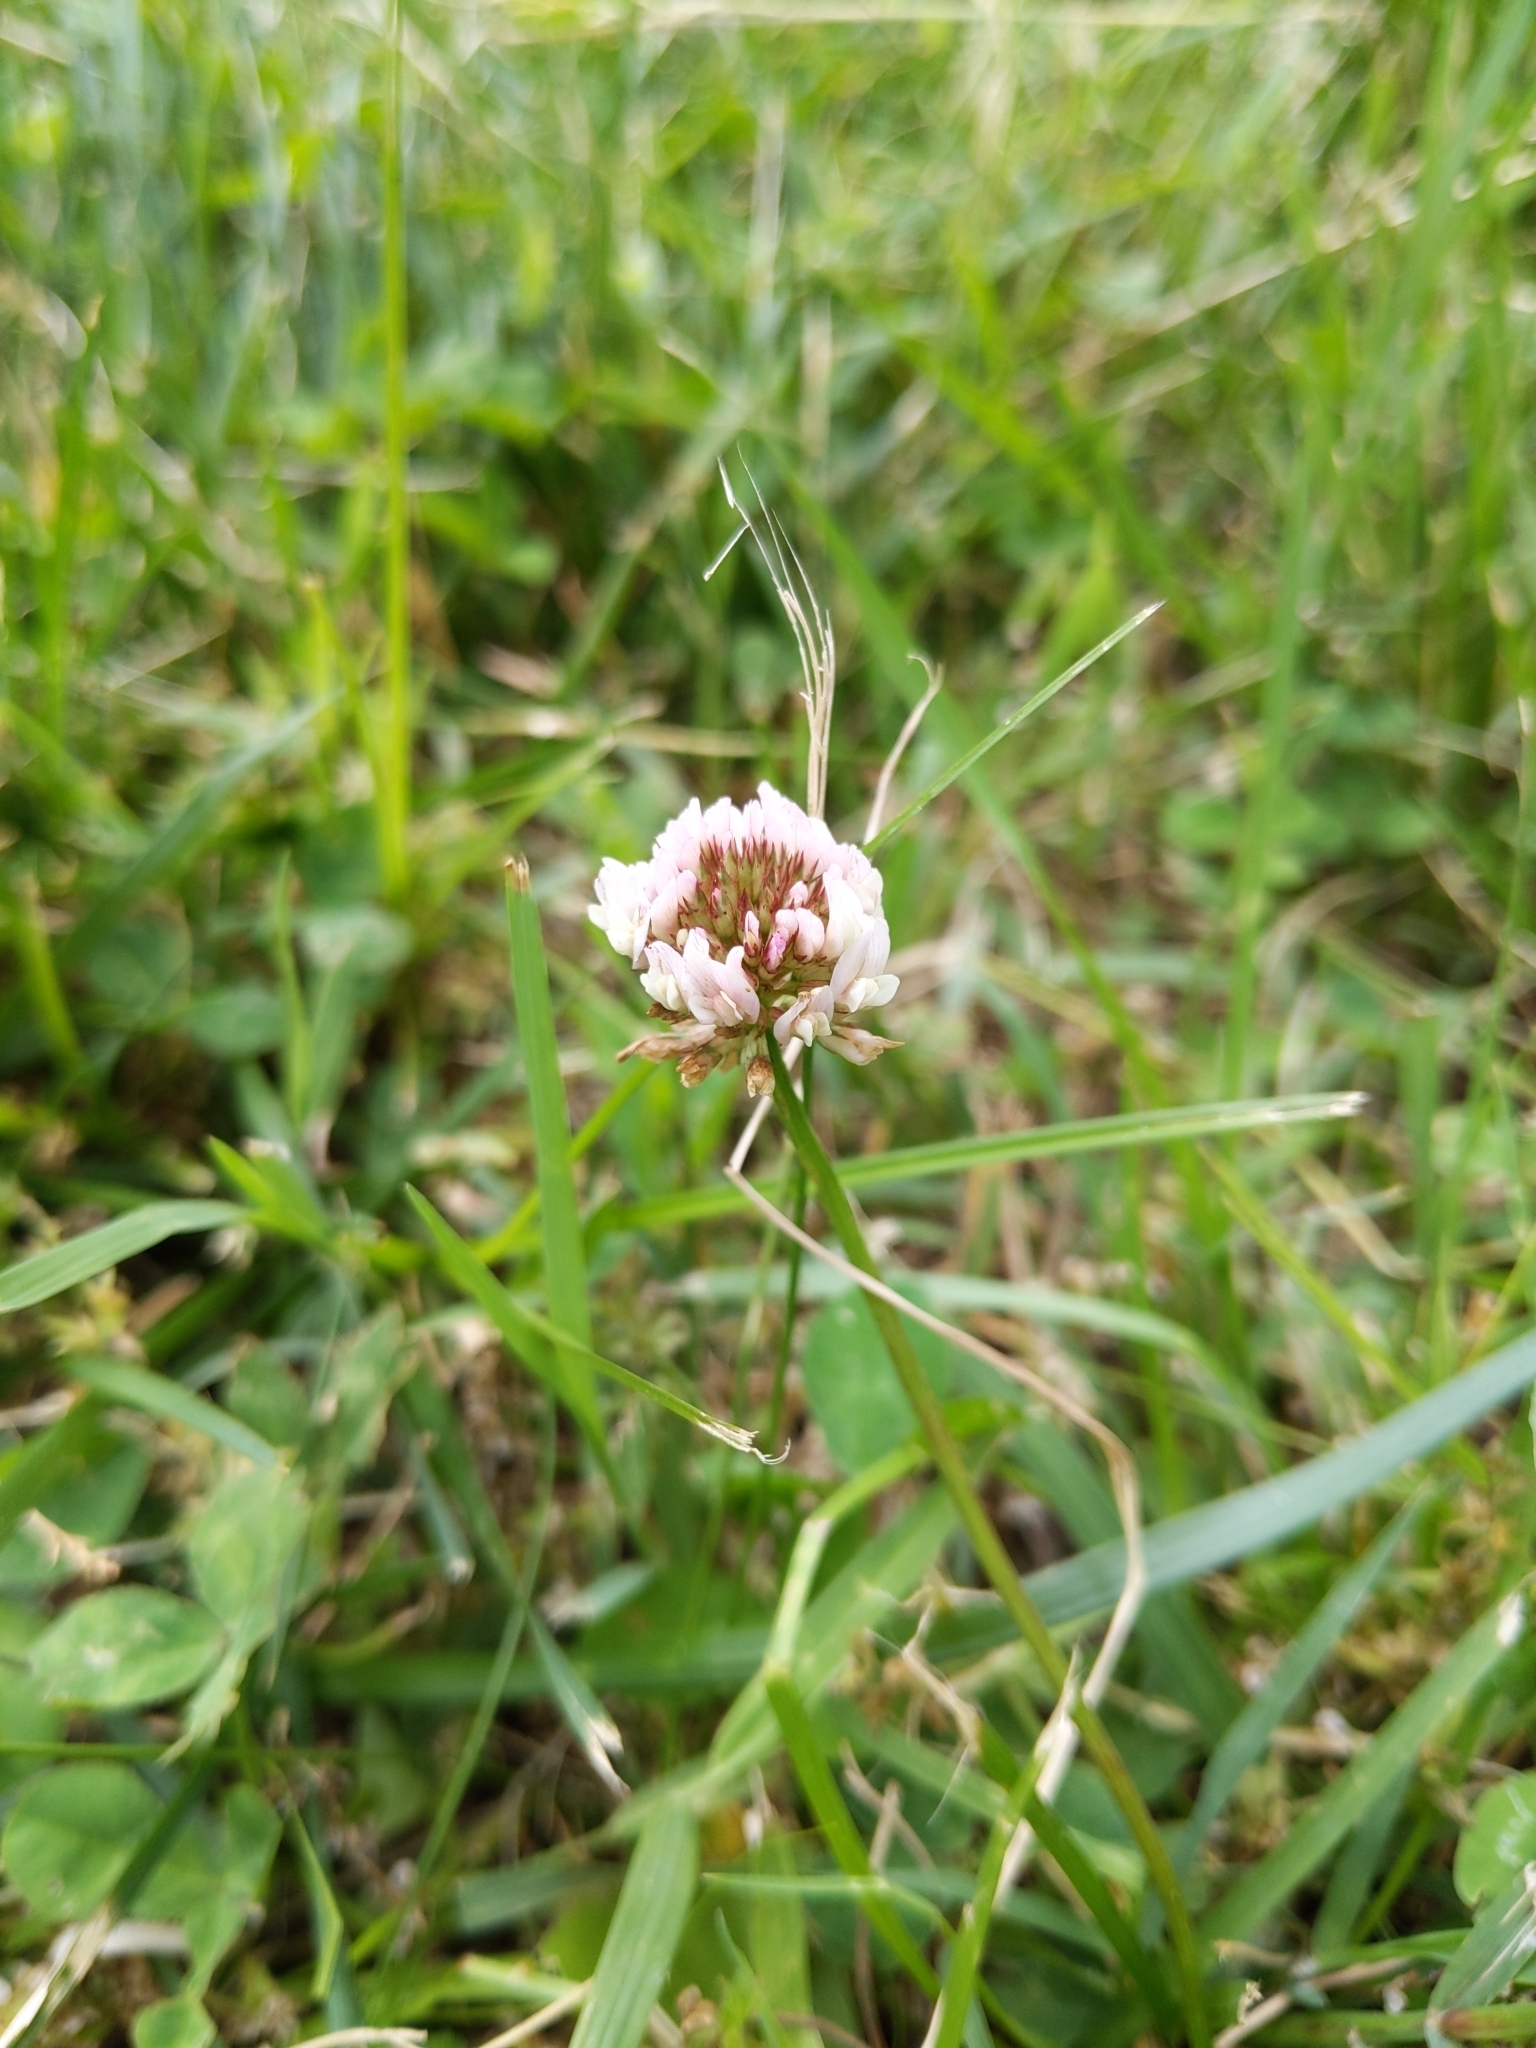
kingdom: Plantae
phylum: Tracheophyta
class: Magnoliopsida
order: Fabales
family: Fabaceae
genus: Trifolium
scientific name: Trifolium repens
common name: White clover
